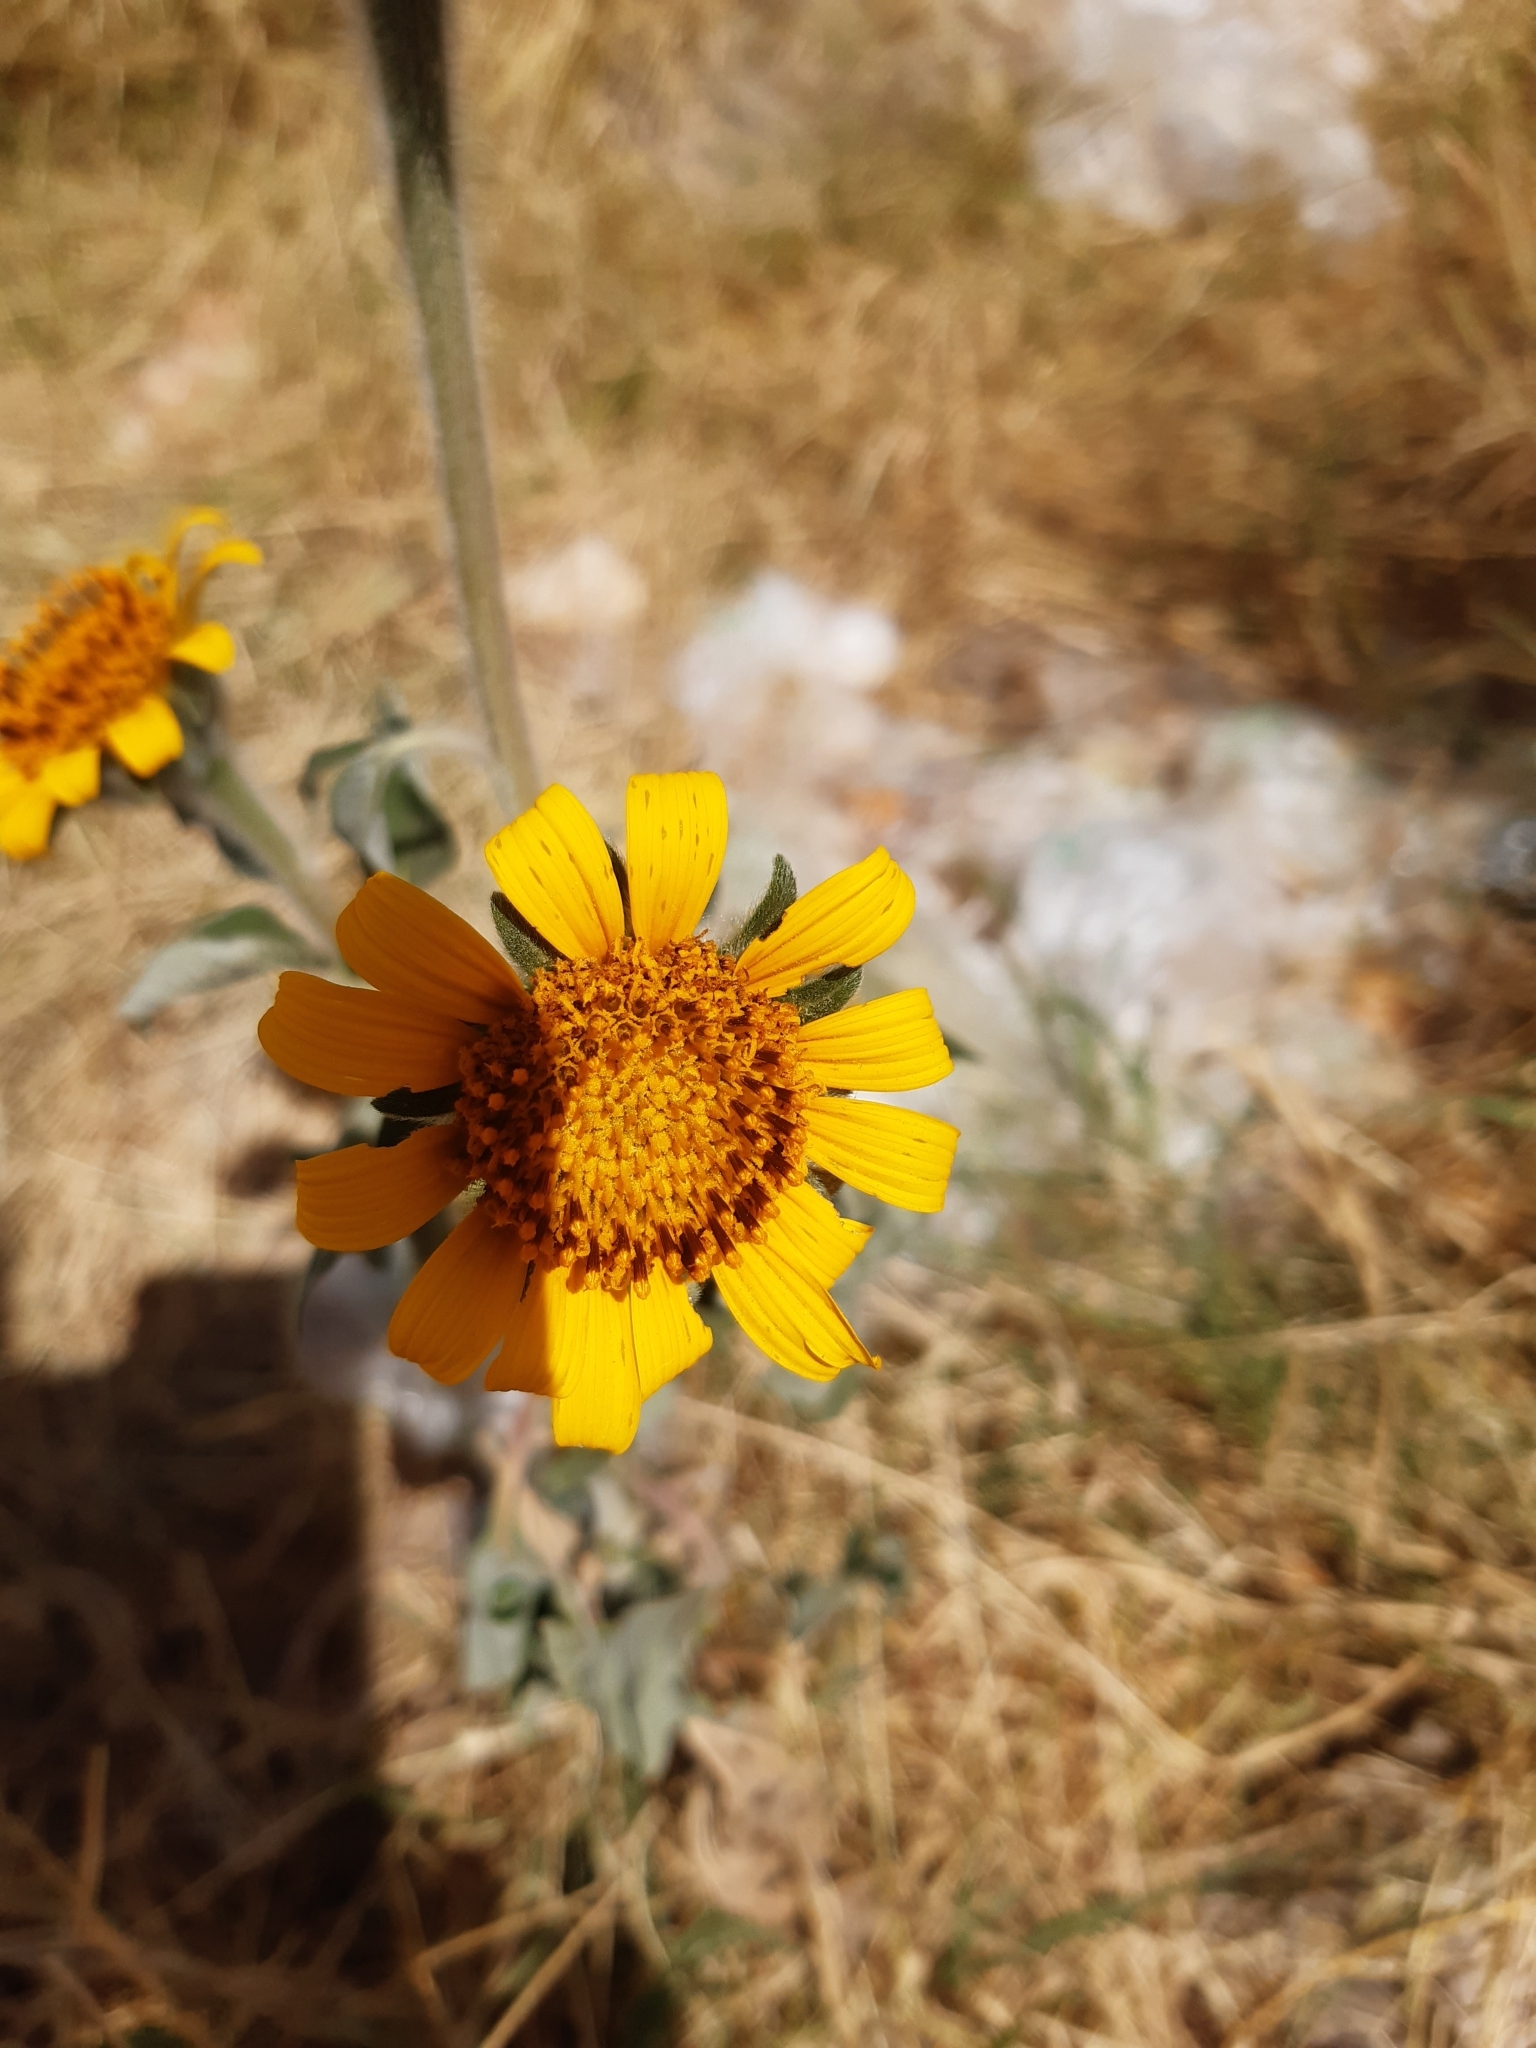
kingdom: Plantae
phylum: Tracheophyta
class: Magnoliopsida
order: Asterales
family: Asteraceae
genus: Tithonia
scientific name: Tithonia tubaeformis
